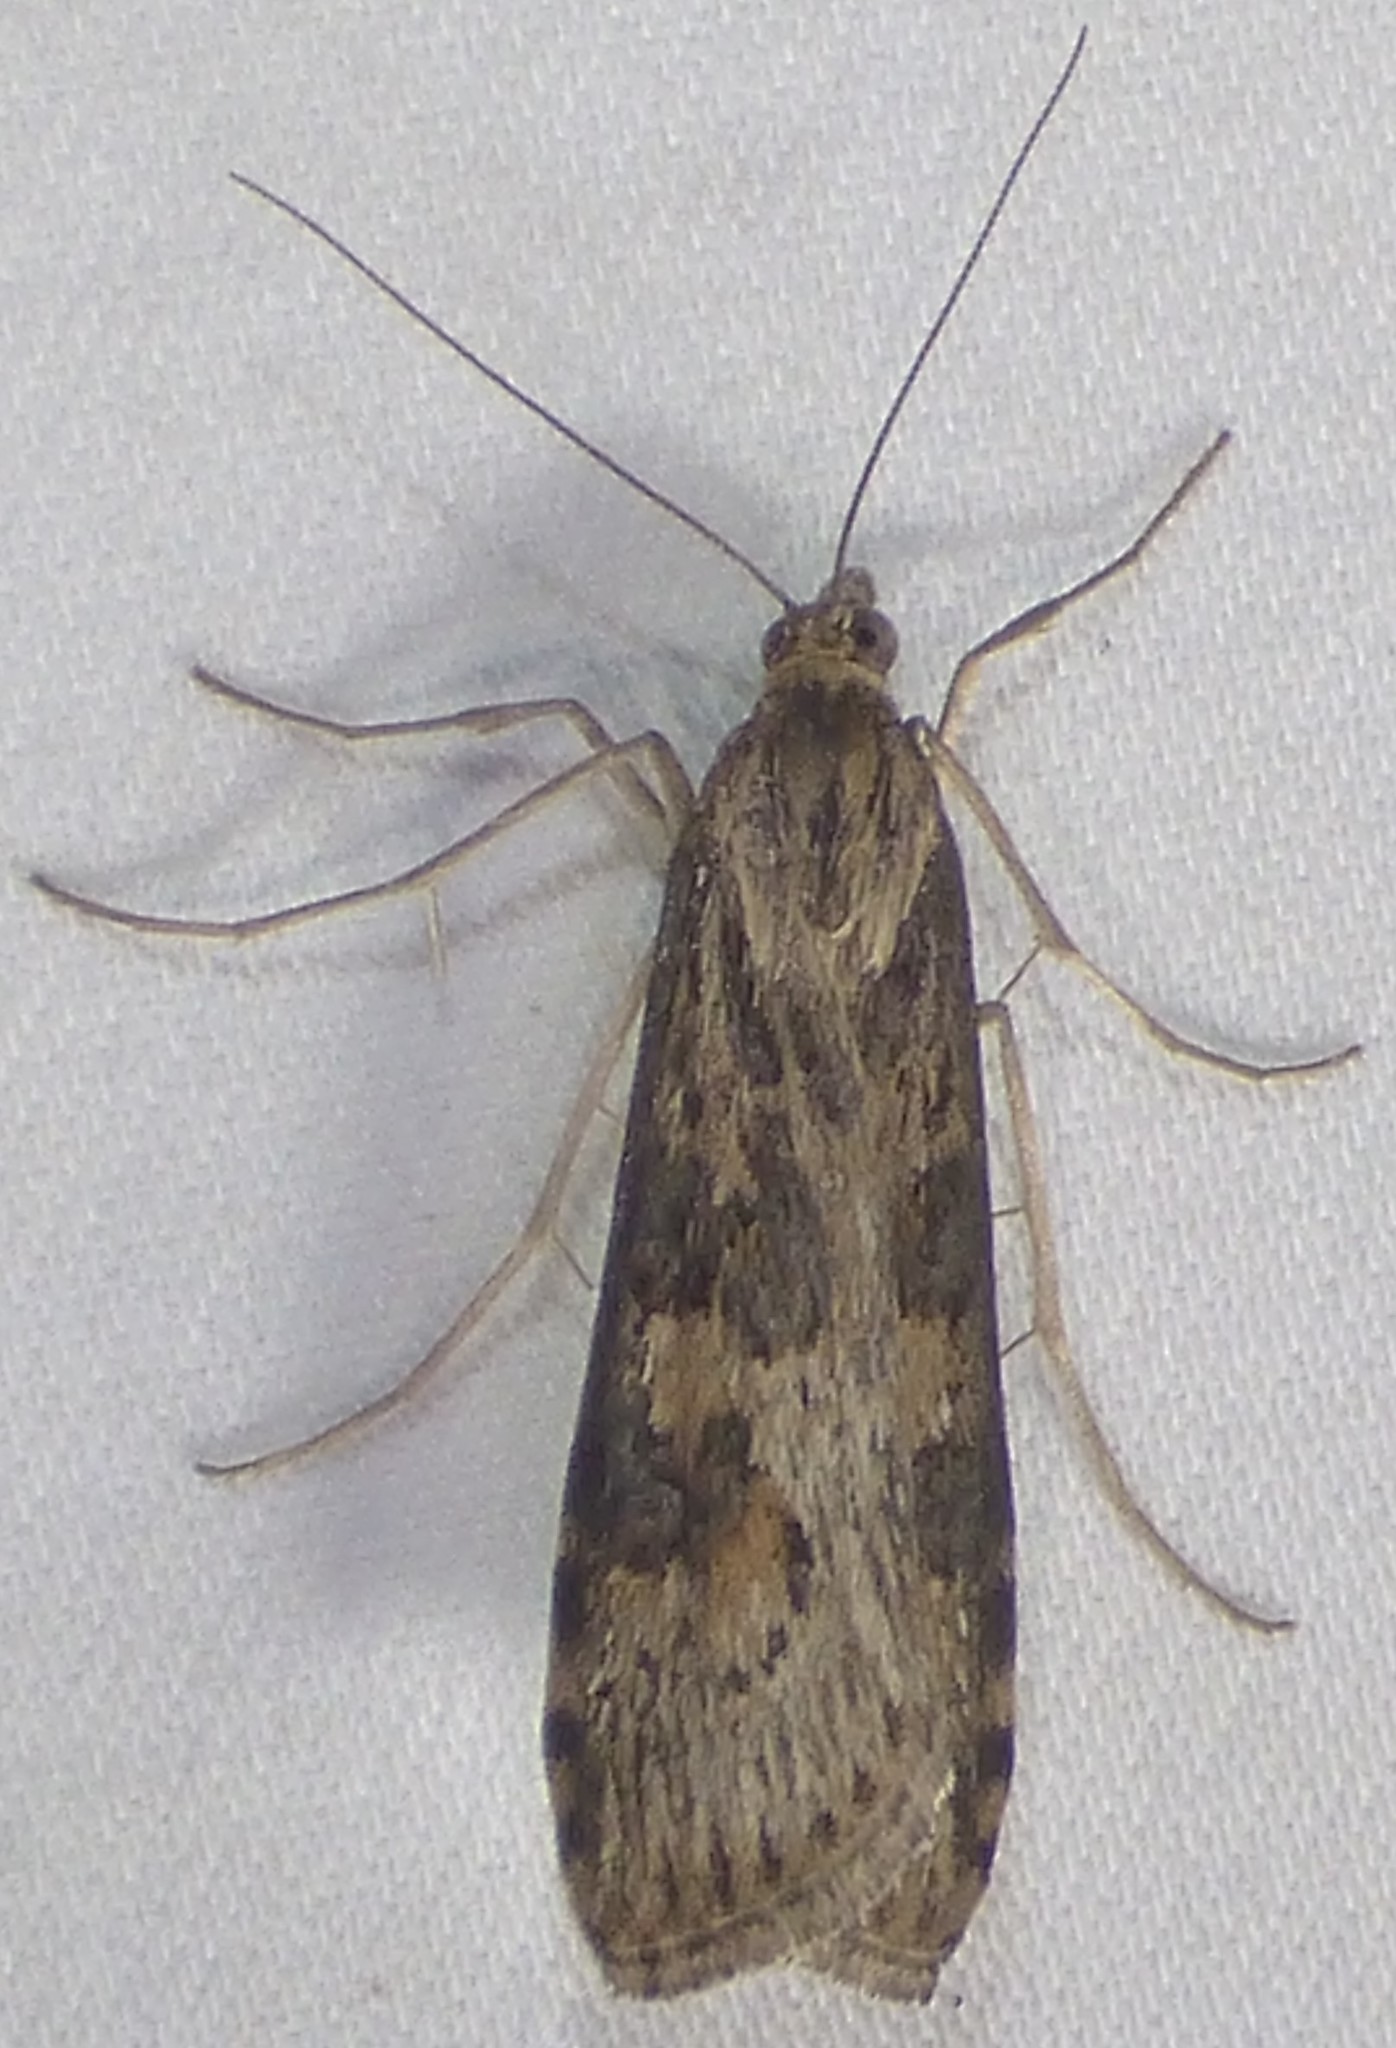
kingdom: Animalia
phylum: Arthropoda
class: Insecta
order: Lepidoptera
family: Crambidae
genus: Nomophila
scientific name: Nomophila nearctica
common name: American rush veneer
